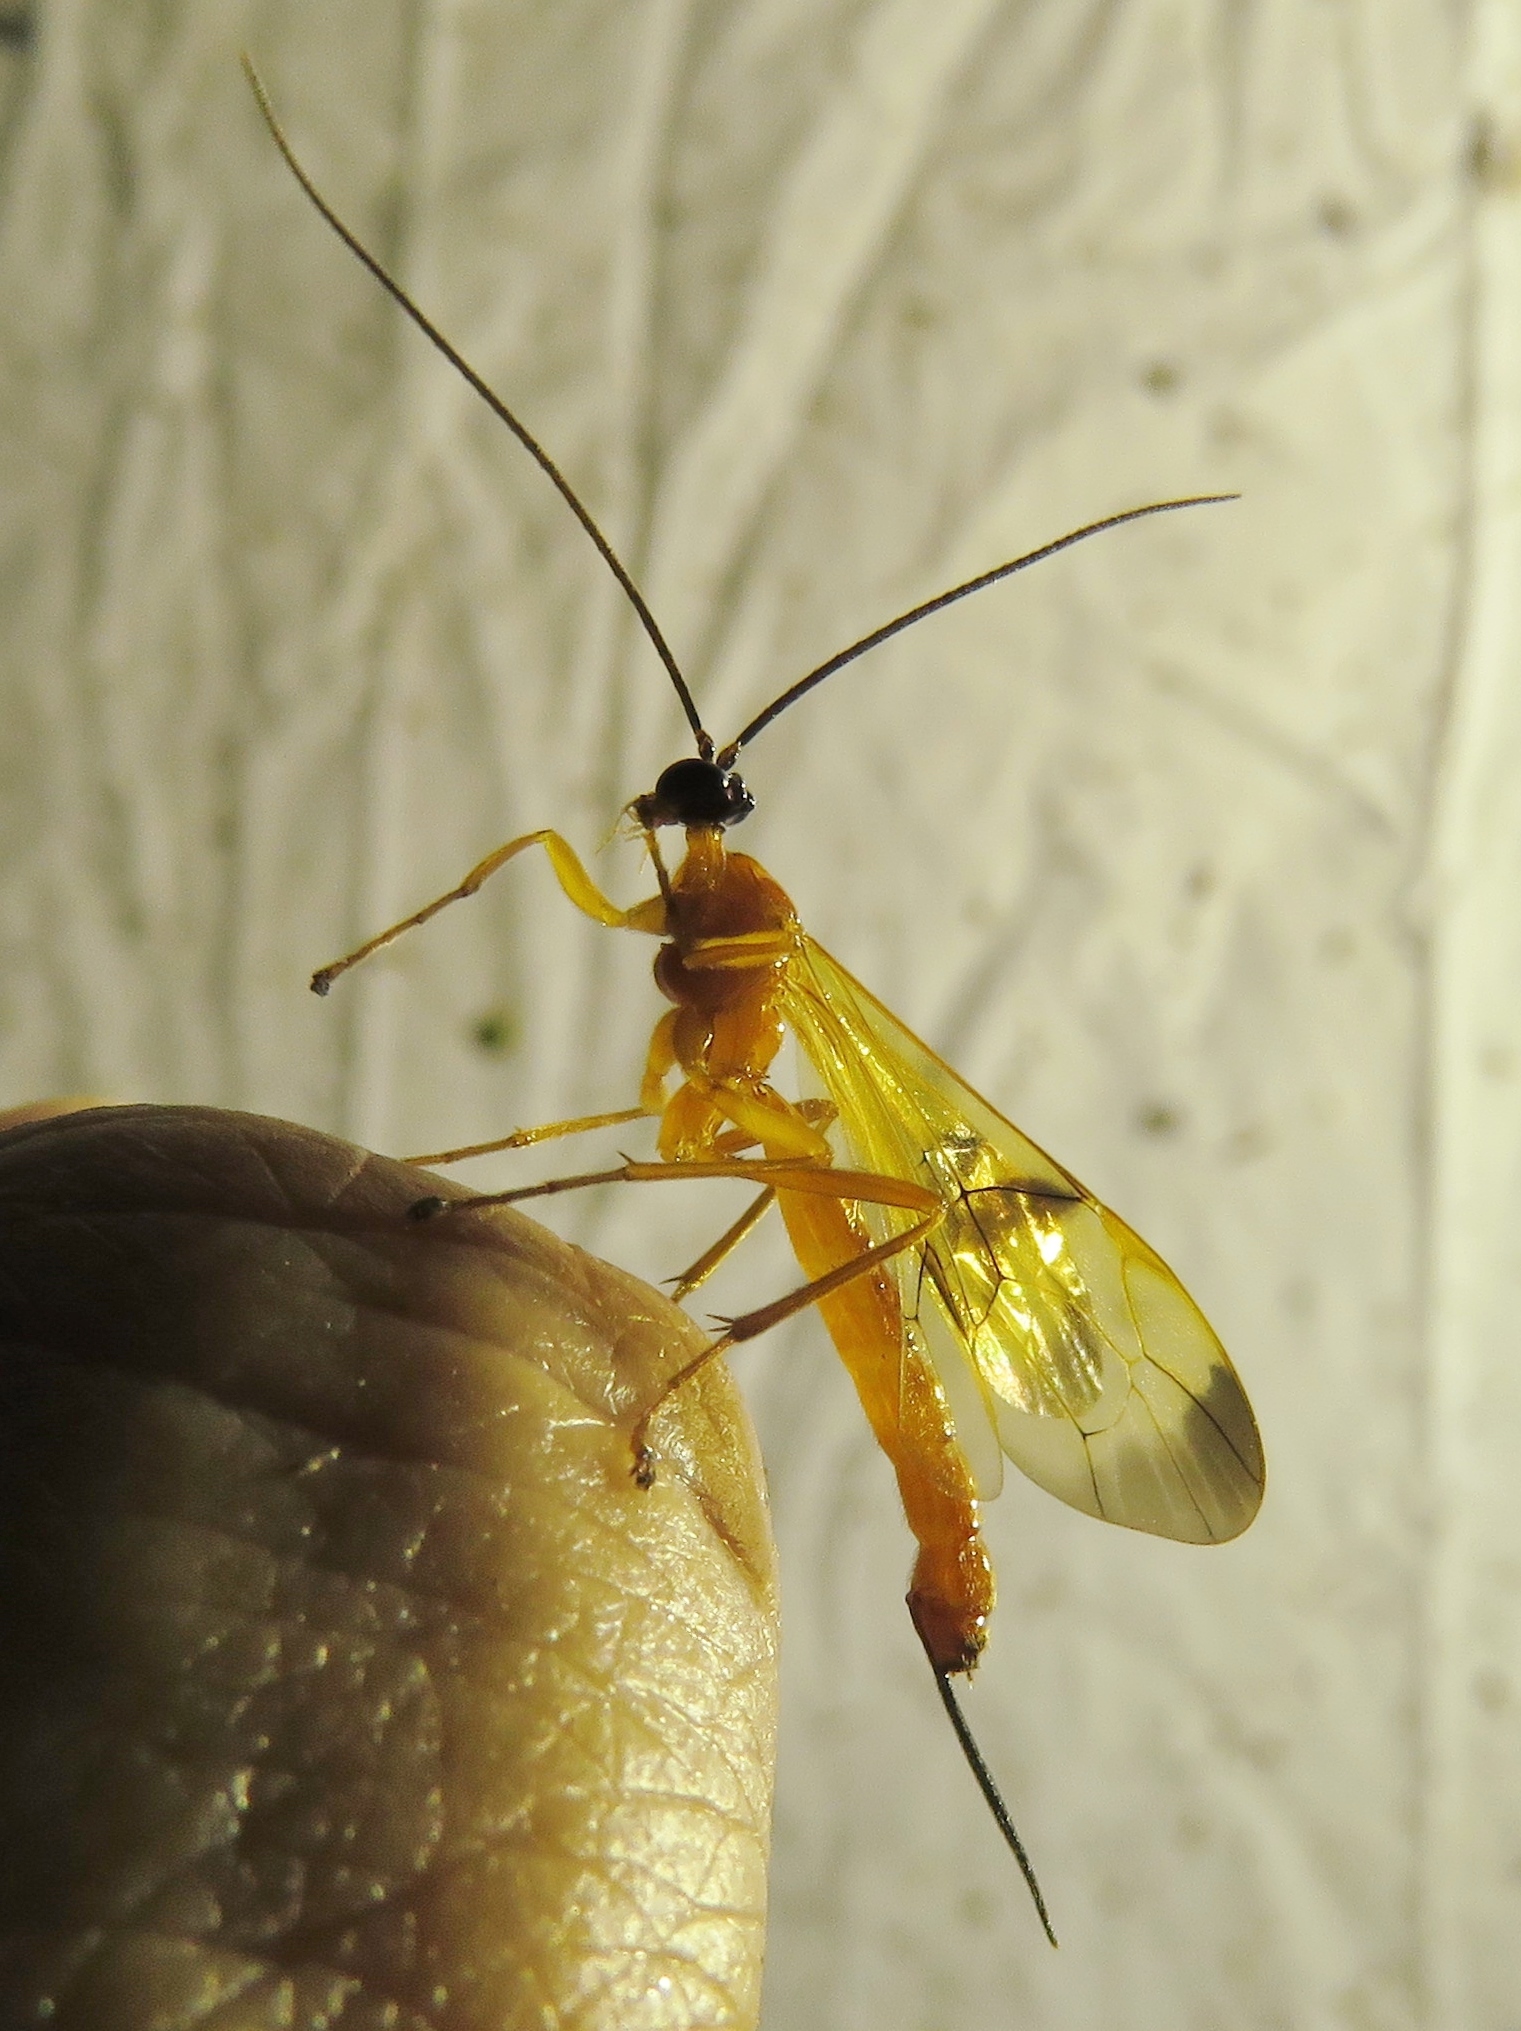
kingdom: Animalia
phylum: Arthropoda
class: Insecta
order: Hymenoptera
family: Ichneumonidae
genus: Acrotaphus
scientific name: Acrotaphus wiltii
